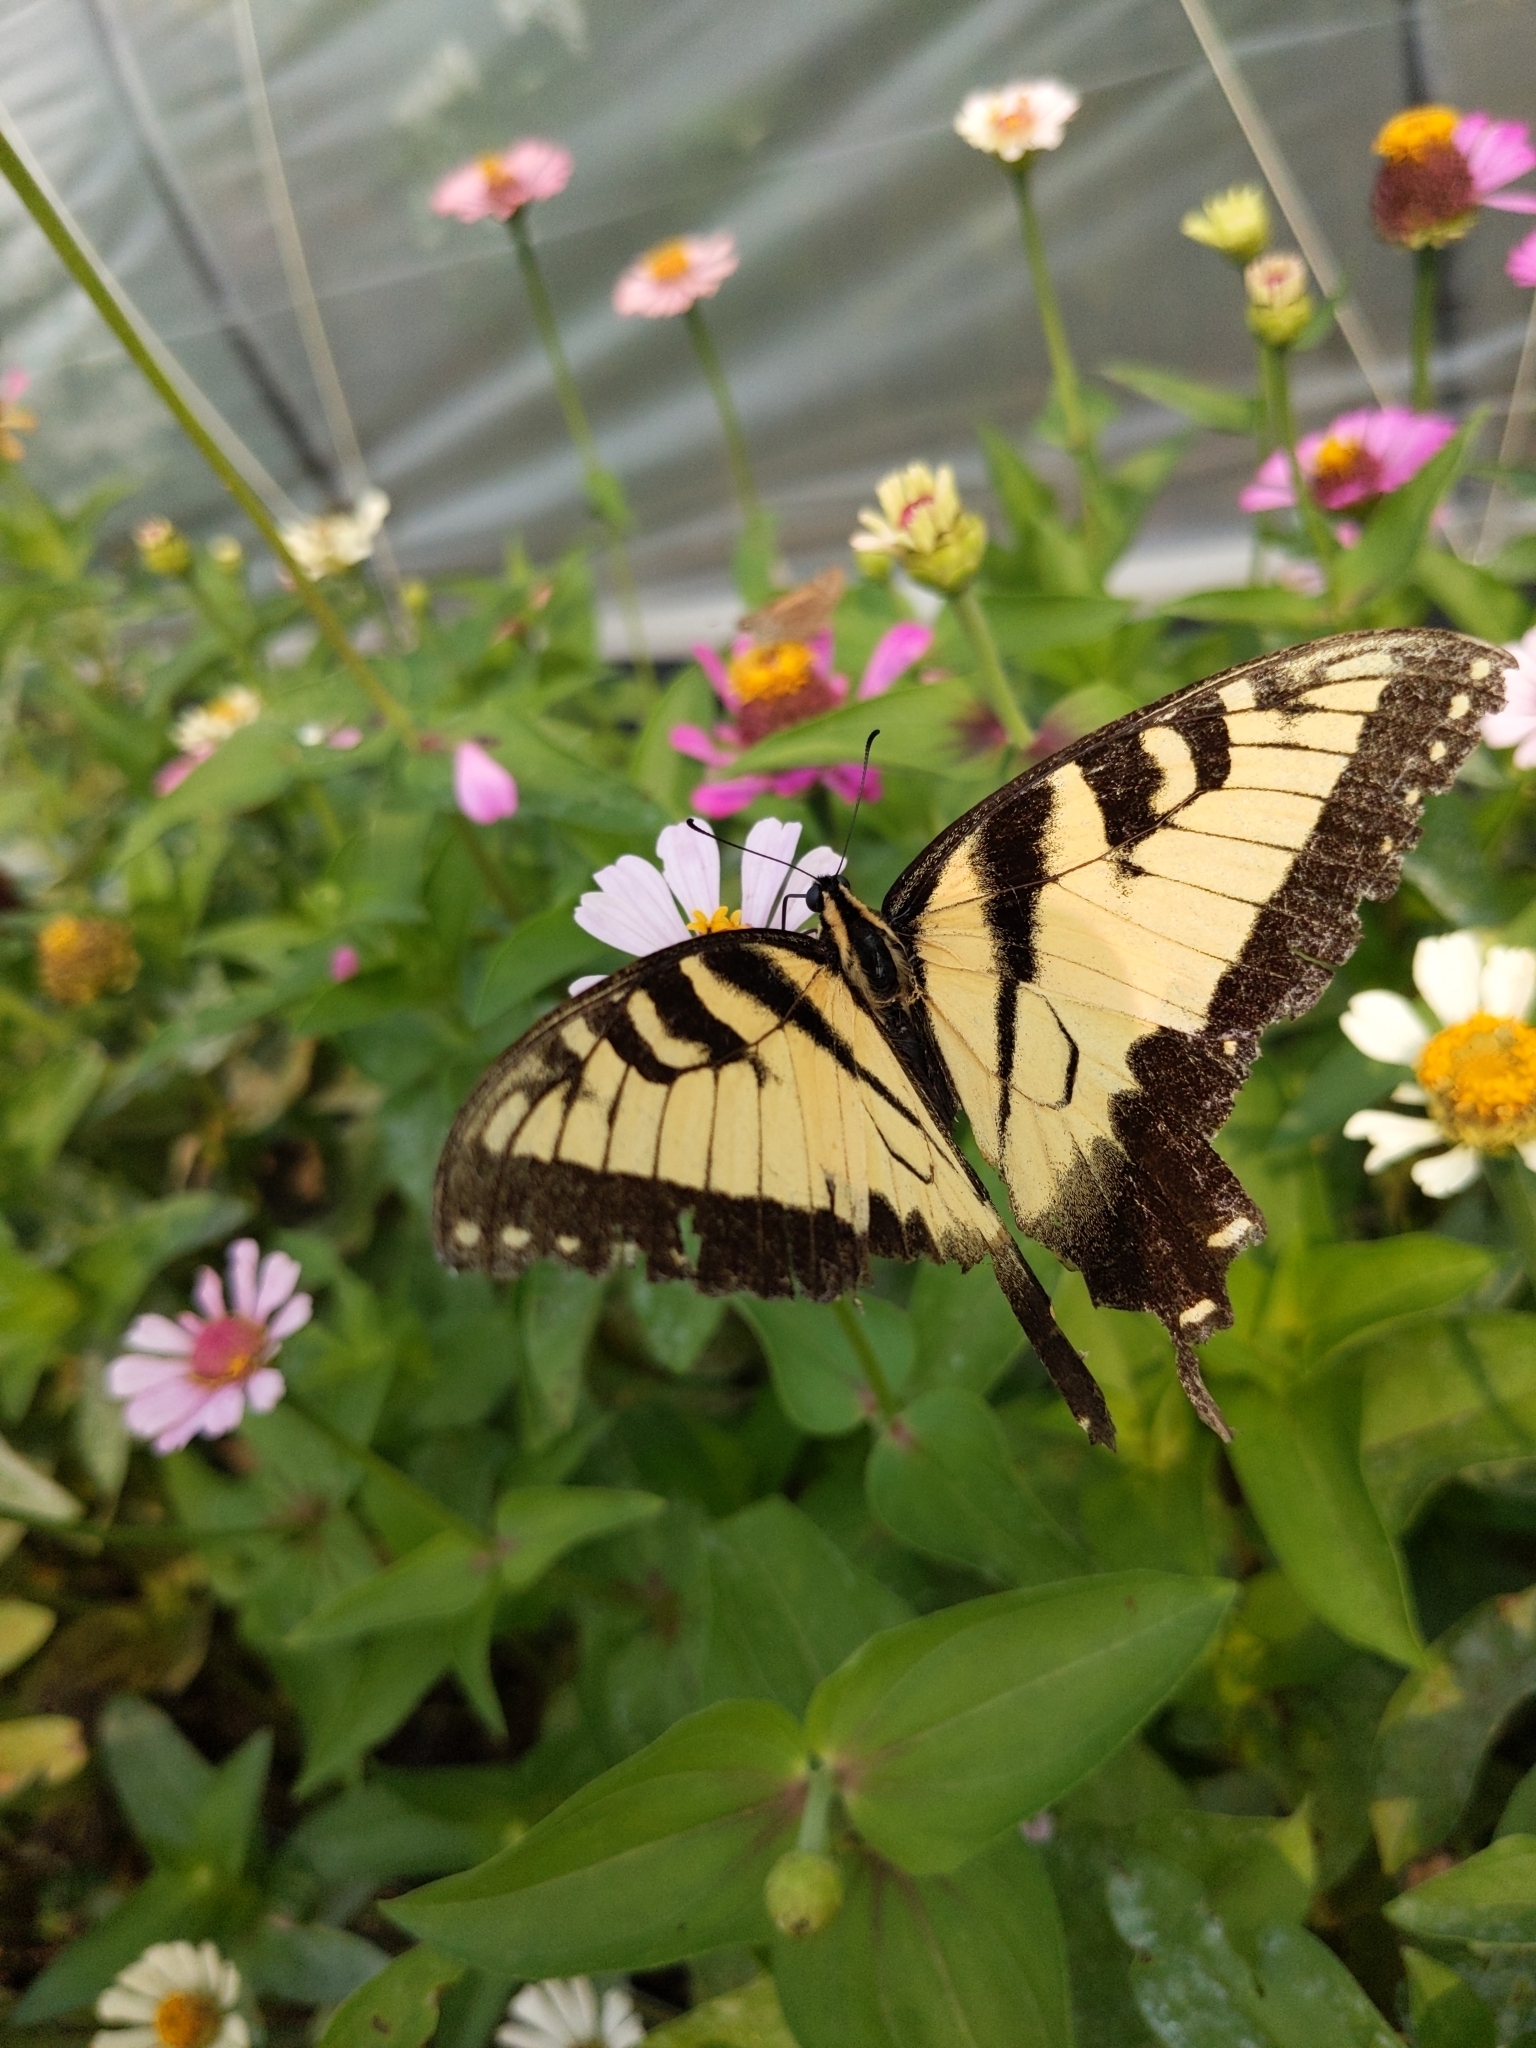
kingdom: Animalia
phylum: Arthropoda
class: Insecta
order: Lepidoptera
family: Papilionidae
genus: Papilio
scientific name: Papilio glaucus
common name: Tiger swallowtail
